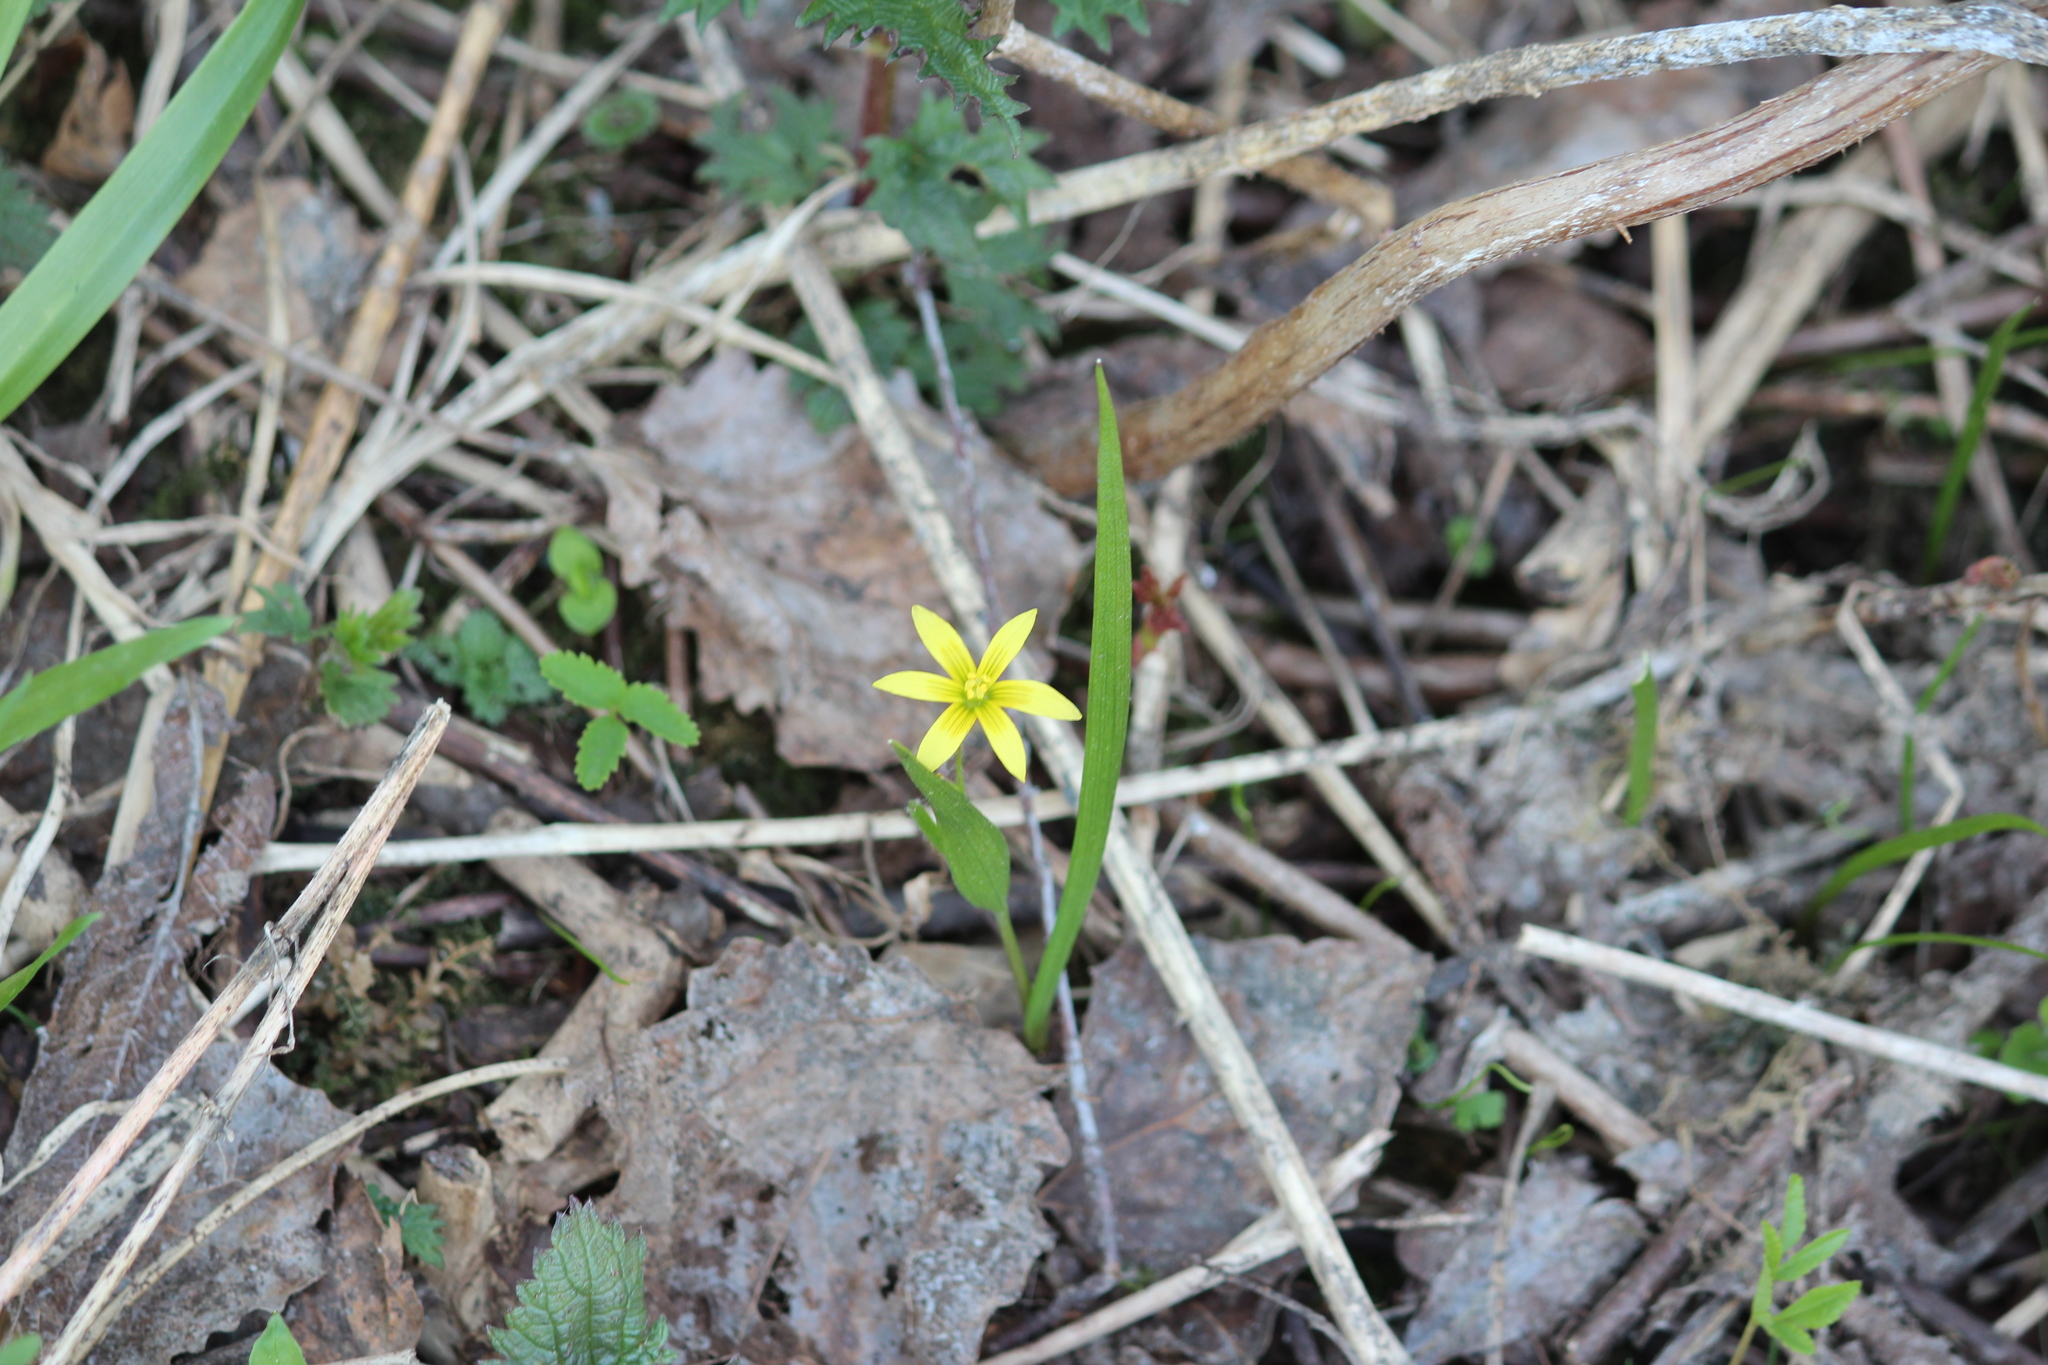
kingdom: Plantae
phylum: Tracheophyta
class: Liliopsida
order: Liliales
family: Liliaceae
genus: Gagea
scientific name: Gagea granulosa
